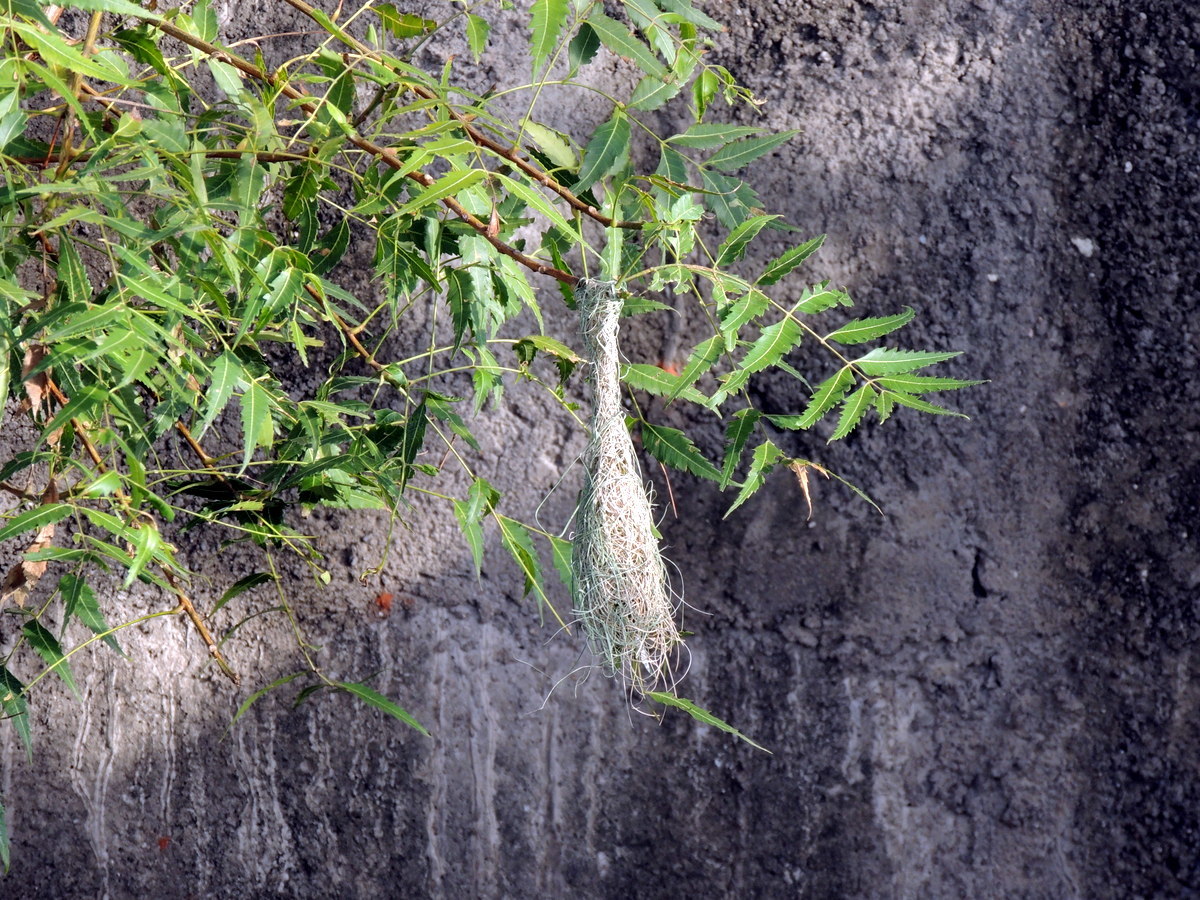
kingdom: Animalia
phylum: Chordata
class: Aves
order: Passeriformes
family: Ploceidae
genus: Ploceus
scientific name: Ploceus philippinus
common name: Baya weaver
